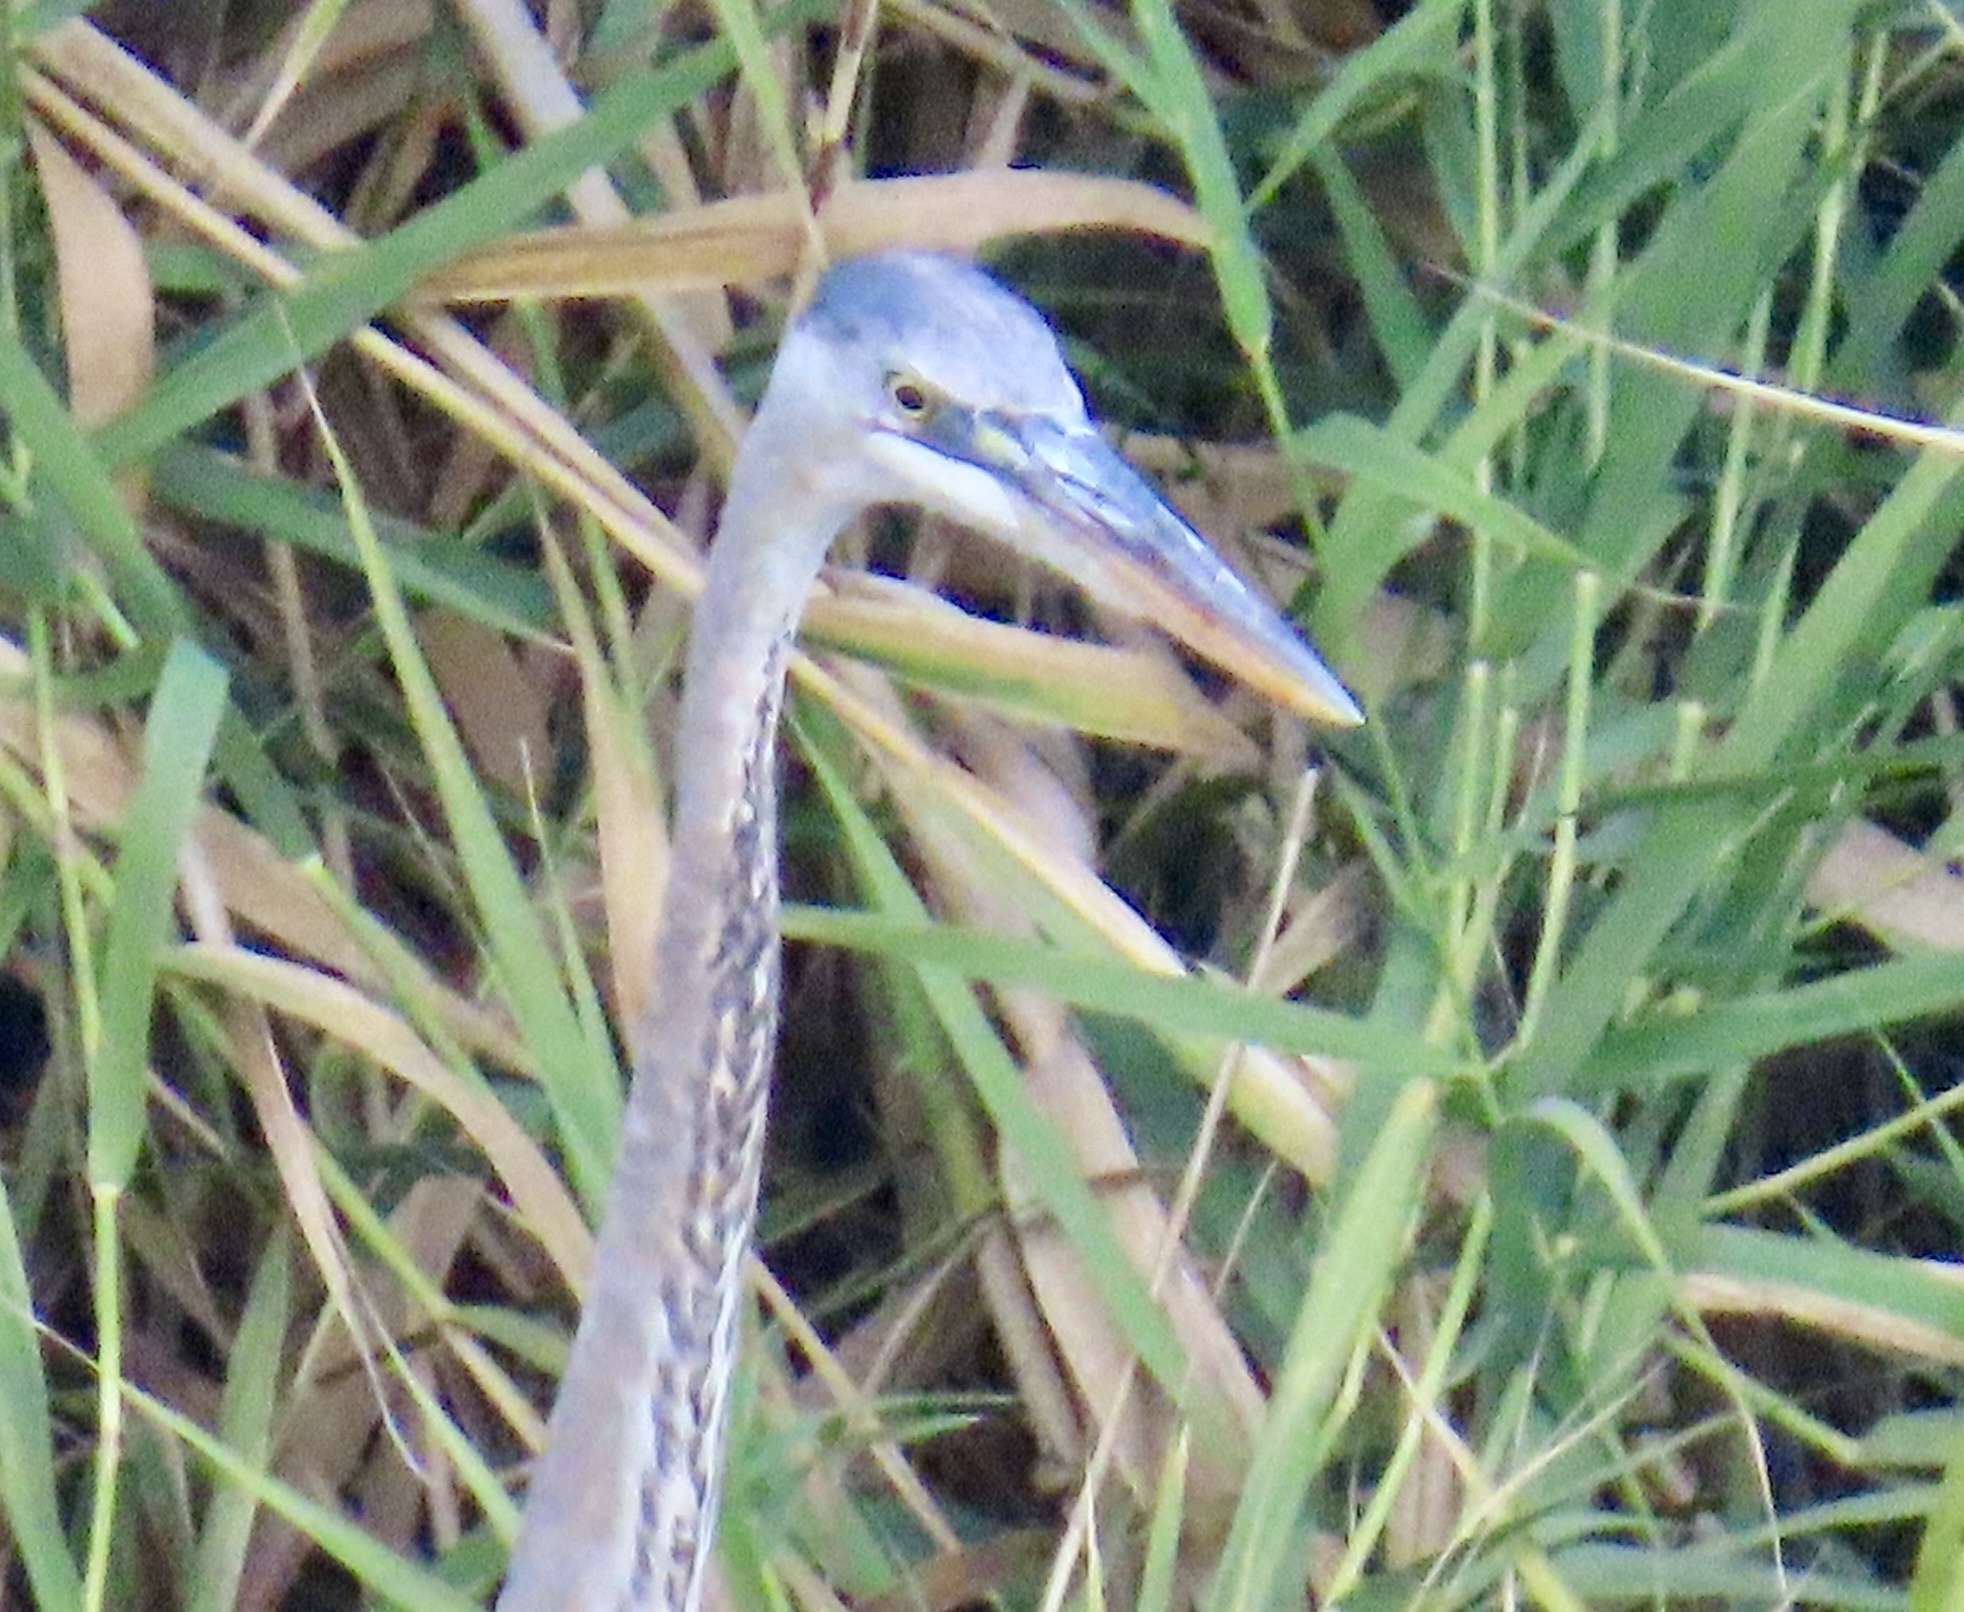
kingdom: Animalia
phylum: Chordata
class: Aves
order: Pelecaniformes
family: Ardeidae
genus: Ardea
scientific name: Ardea herodias
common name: Great blue heron
